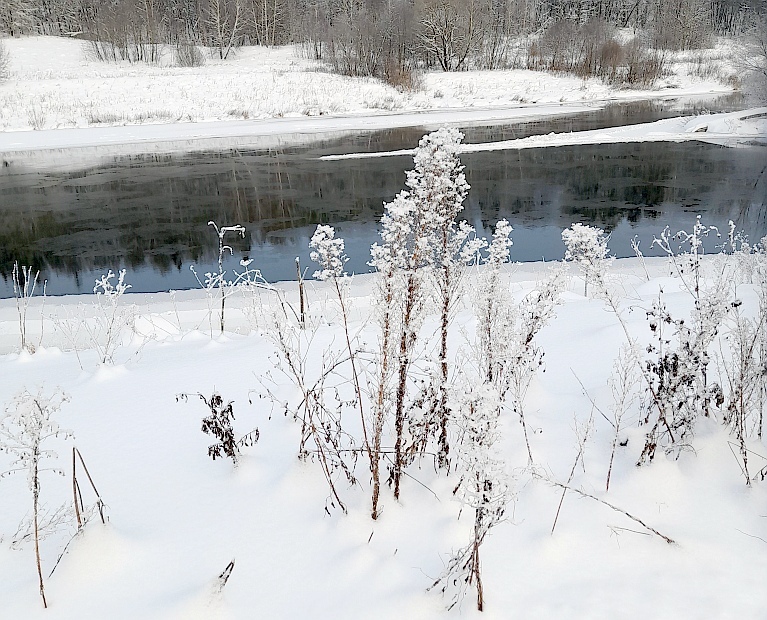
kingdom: Plantae
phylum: Tracheophyta
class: Magnoliopsida
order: Asterales
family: Asteraceae
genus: Erigeron
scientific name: Erigeron canadensis
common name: Canadian fleabane
